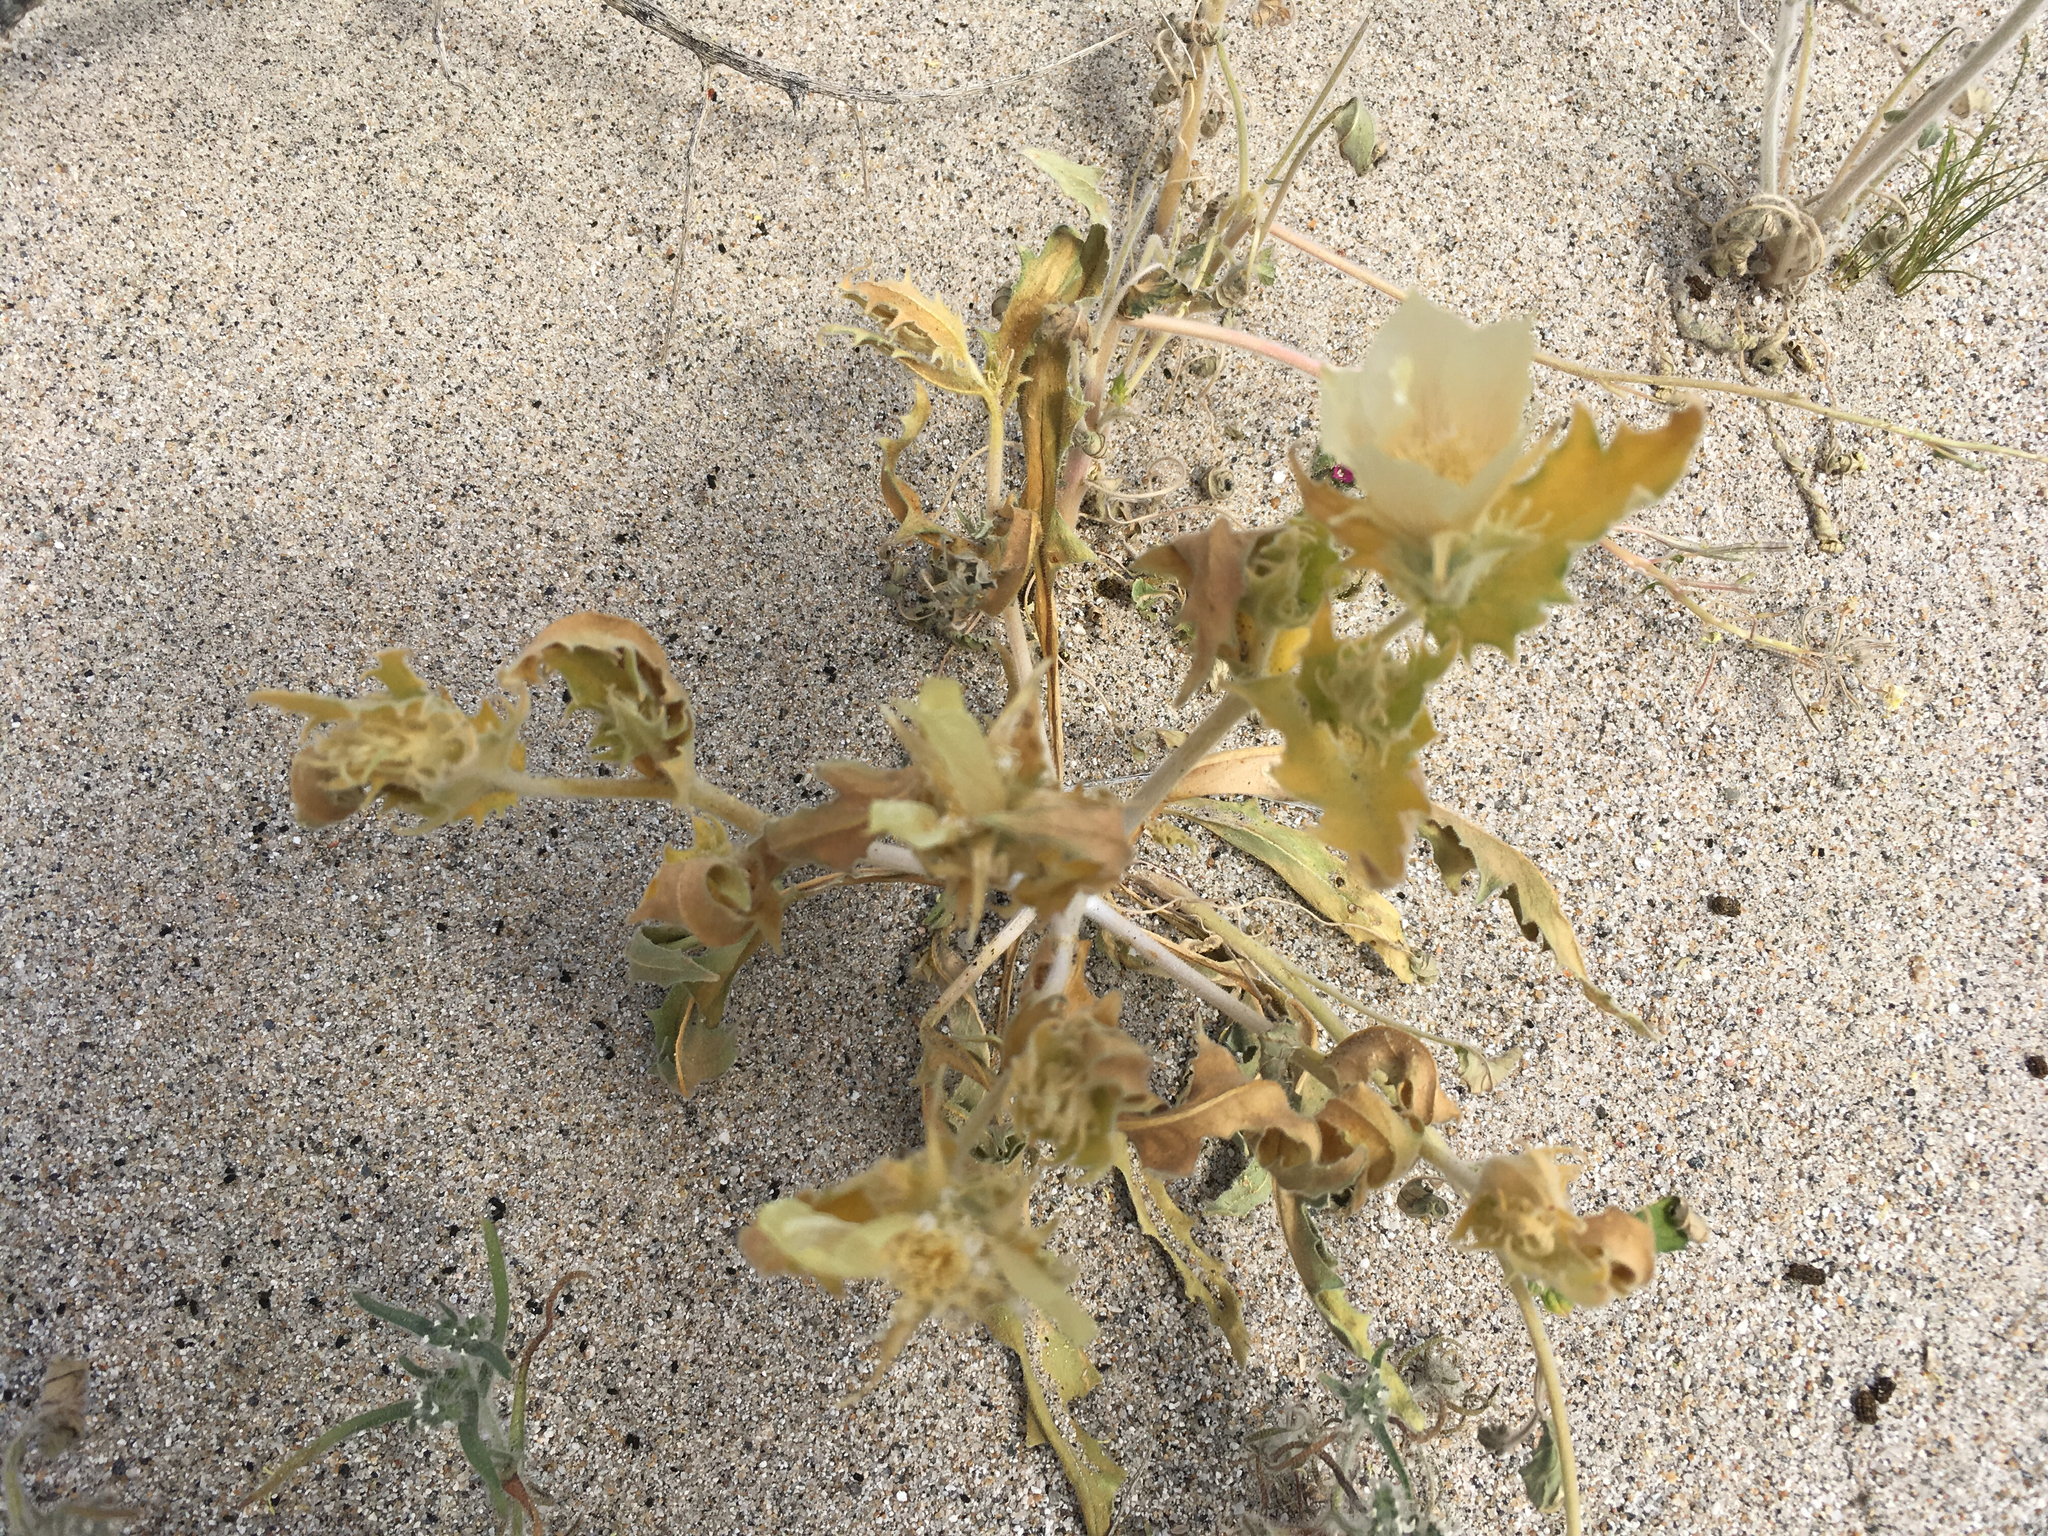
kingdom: Plantae
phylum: Tracheophyta
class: Magnoliopsida
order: Cornales
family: Loasaceae
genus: Mentzelia
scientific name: Mentzelia involucrata
